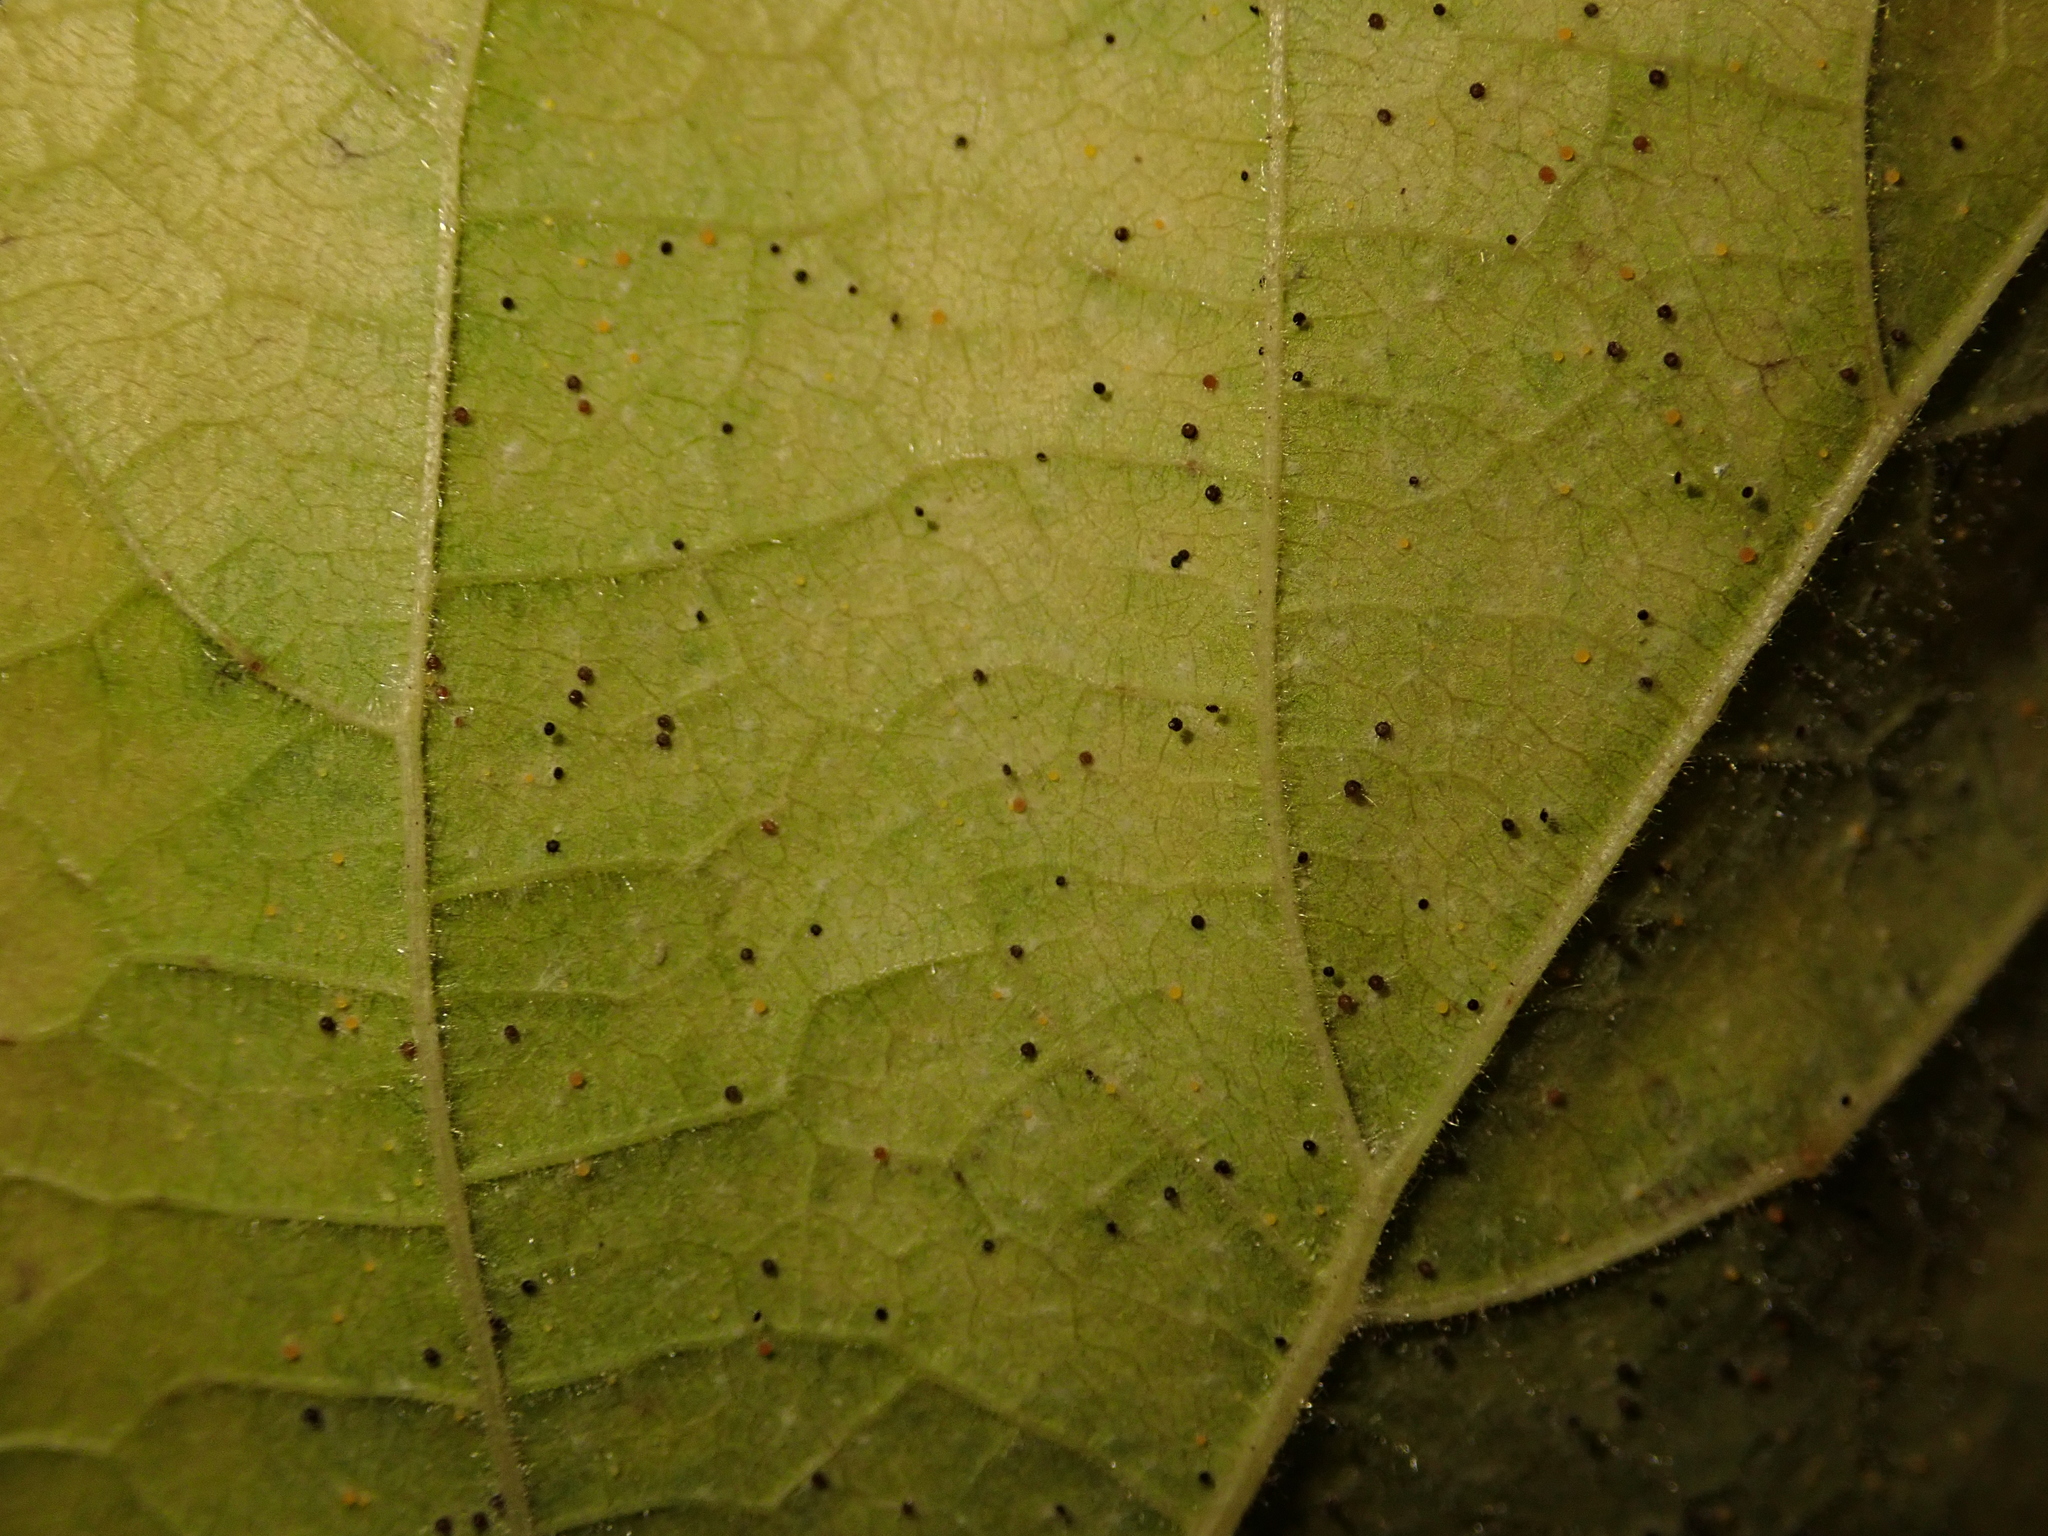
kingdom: Fungi
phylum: Ascomycota
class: Leotiomycetes
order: Helotiales
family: Erysiphaceae
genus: Phyllactinia
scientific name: Phyllactinia guttata
